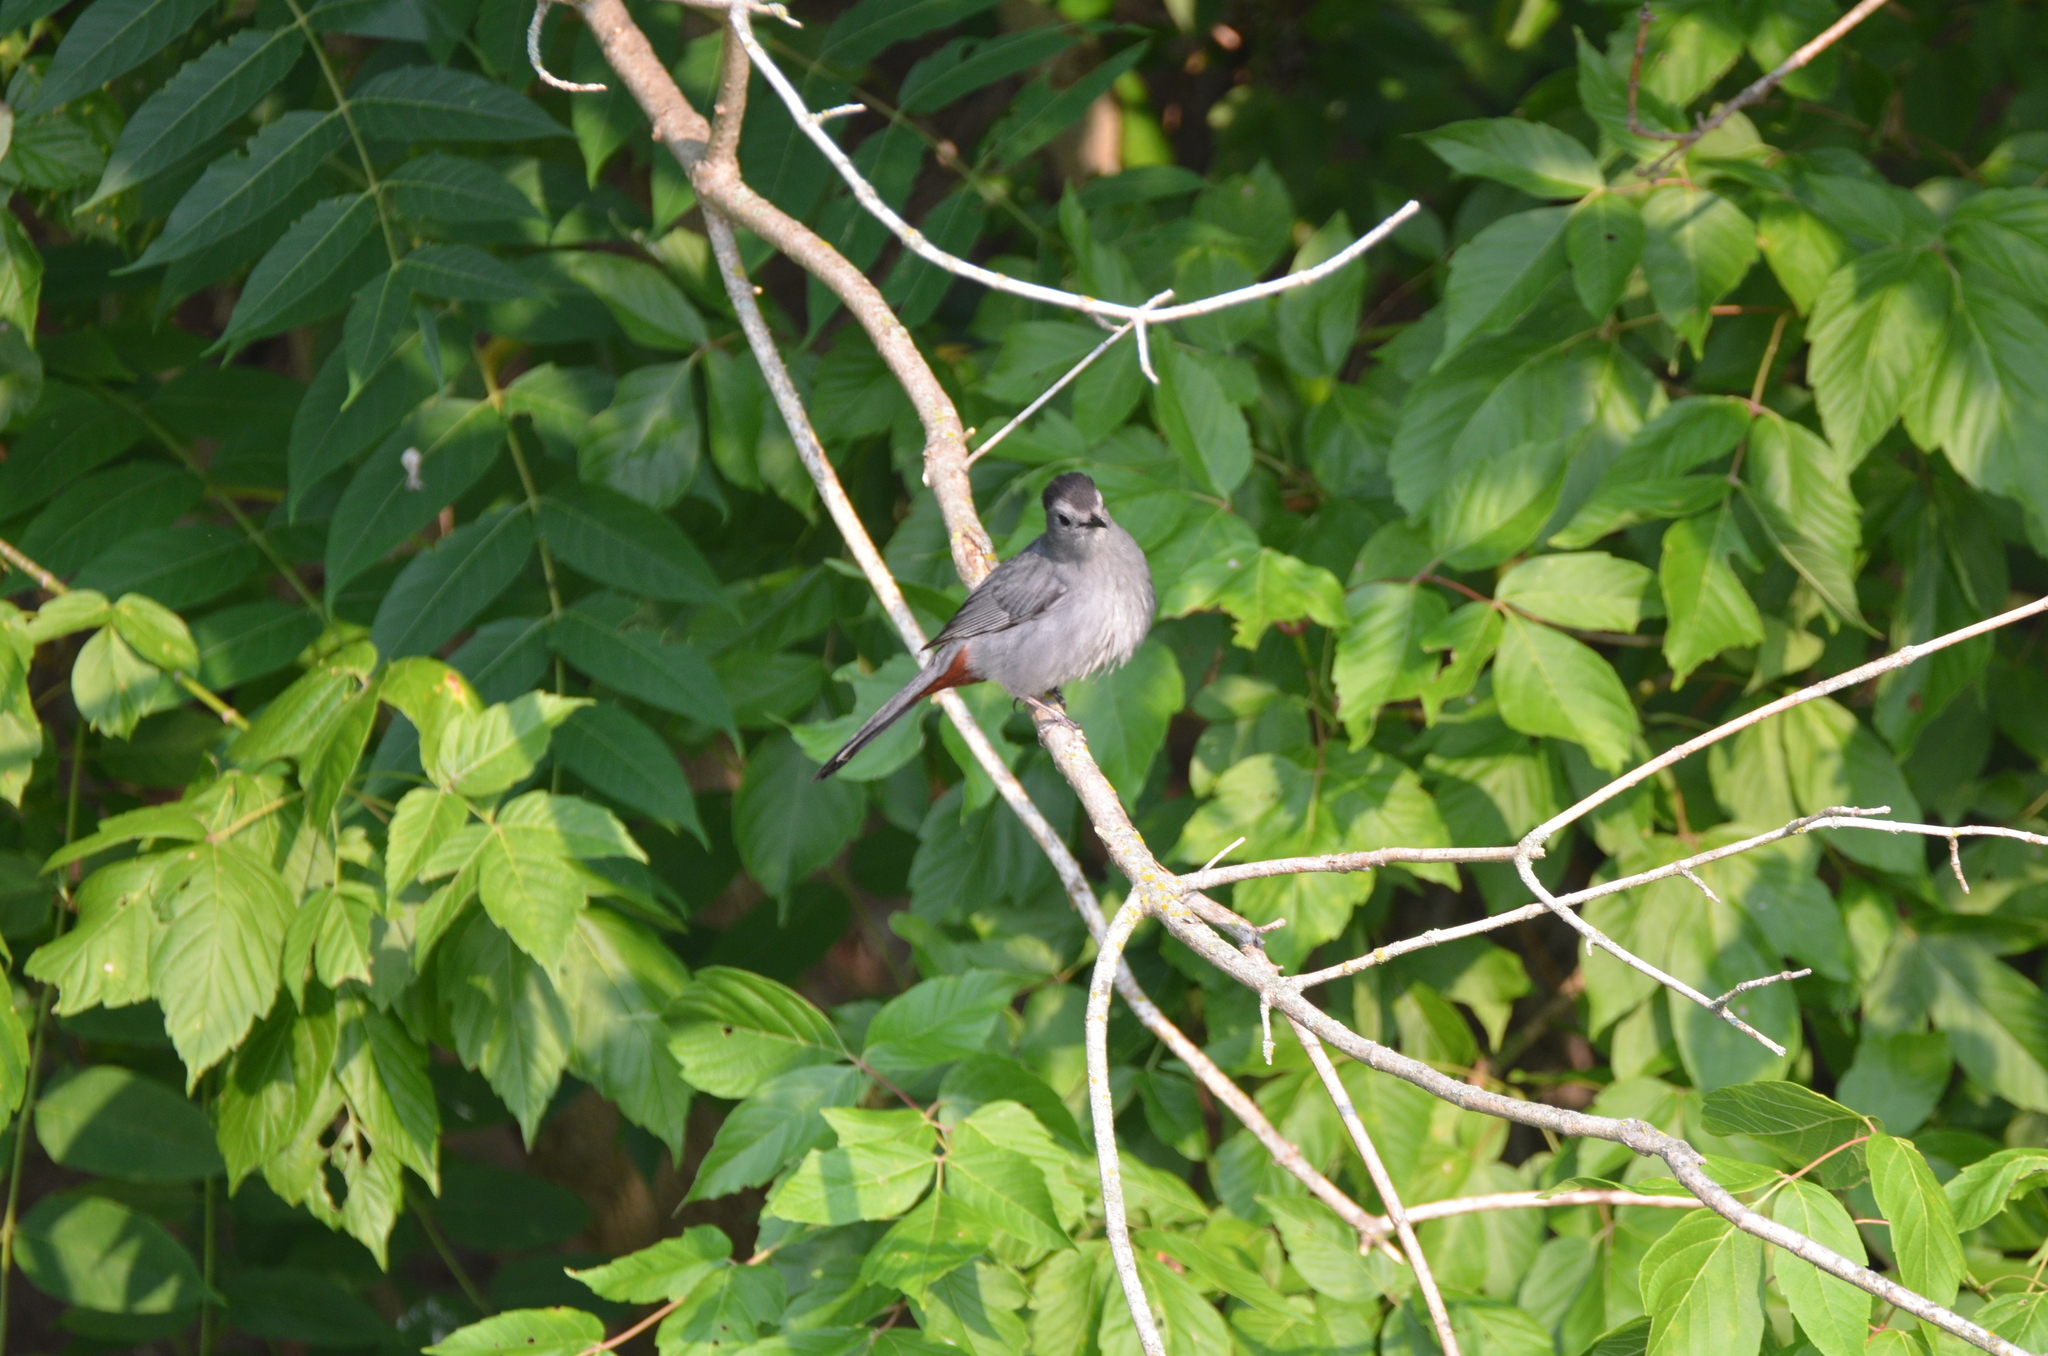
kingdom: Animalia
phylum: Chordata
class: Aves
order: Passeriformes
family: Mimidae
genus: Dumetella
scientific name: Dumetella carolinensis
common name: Gray catbird
